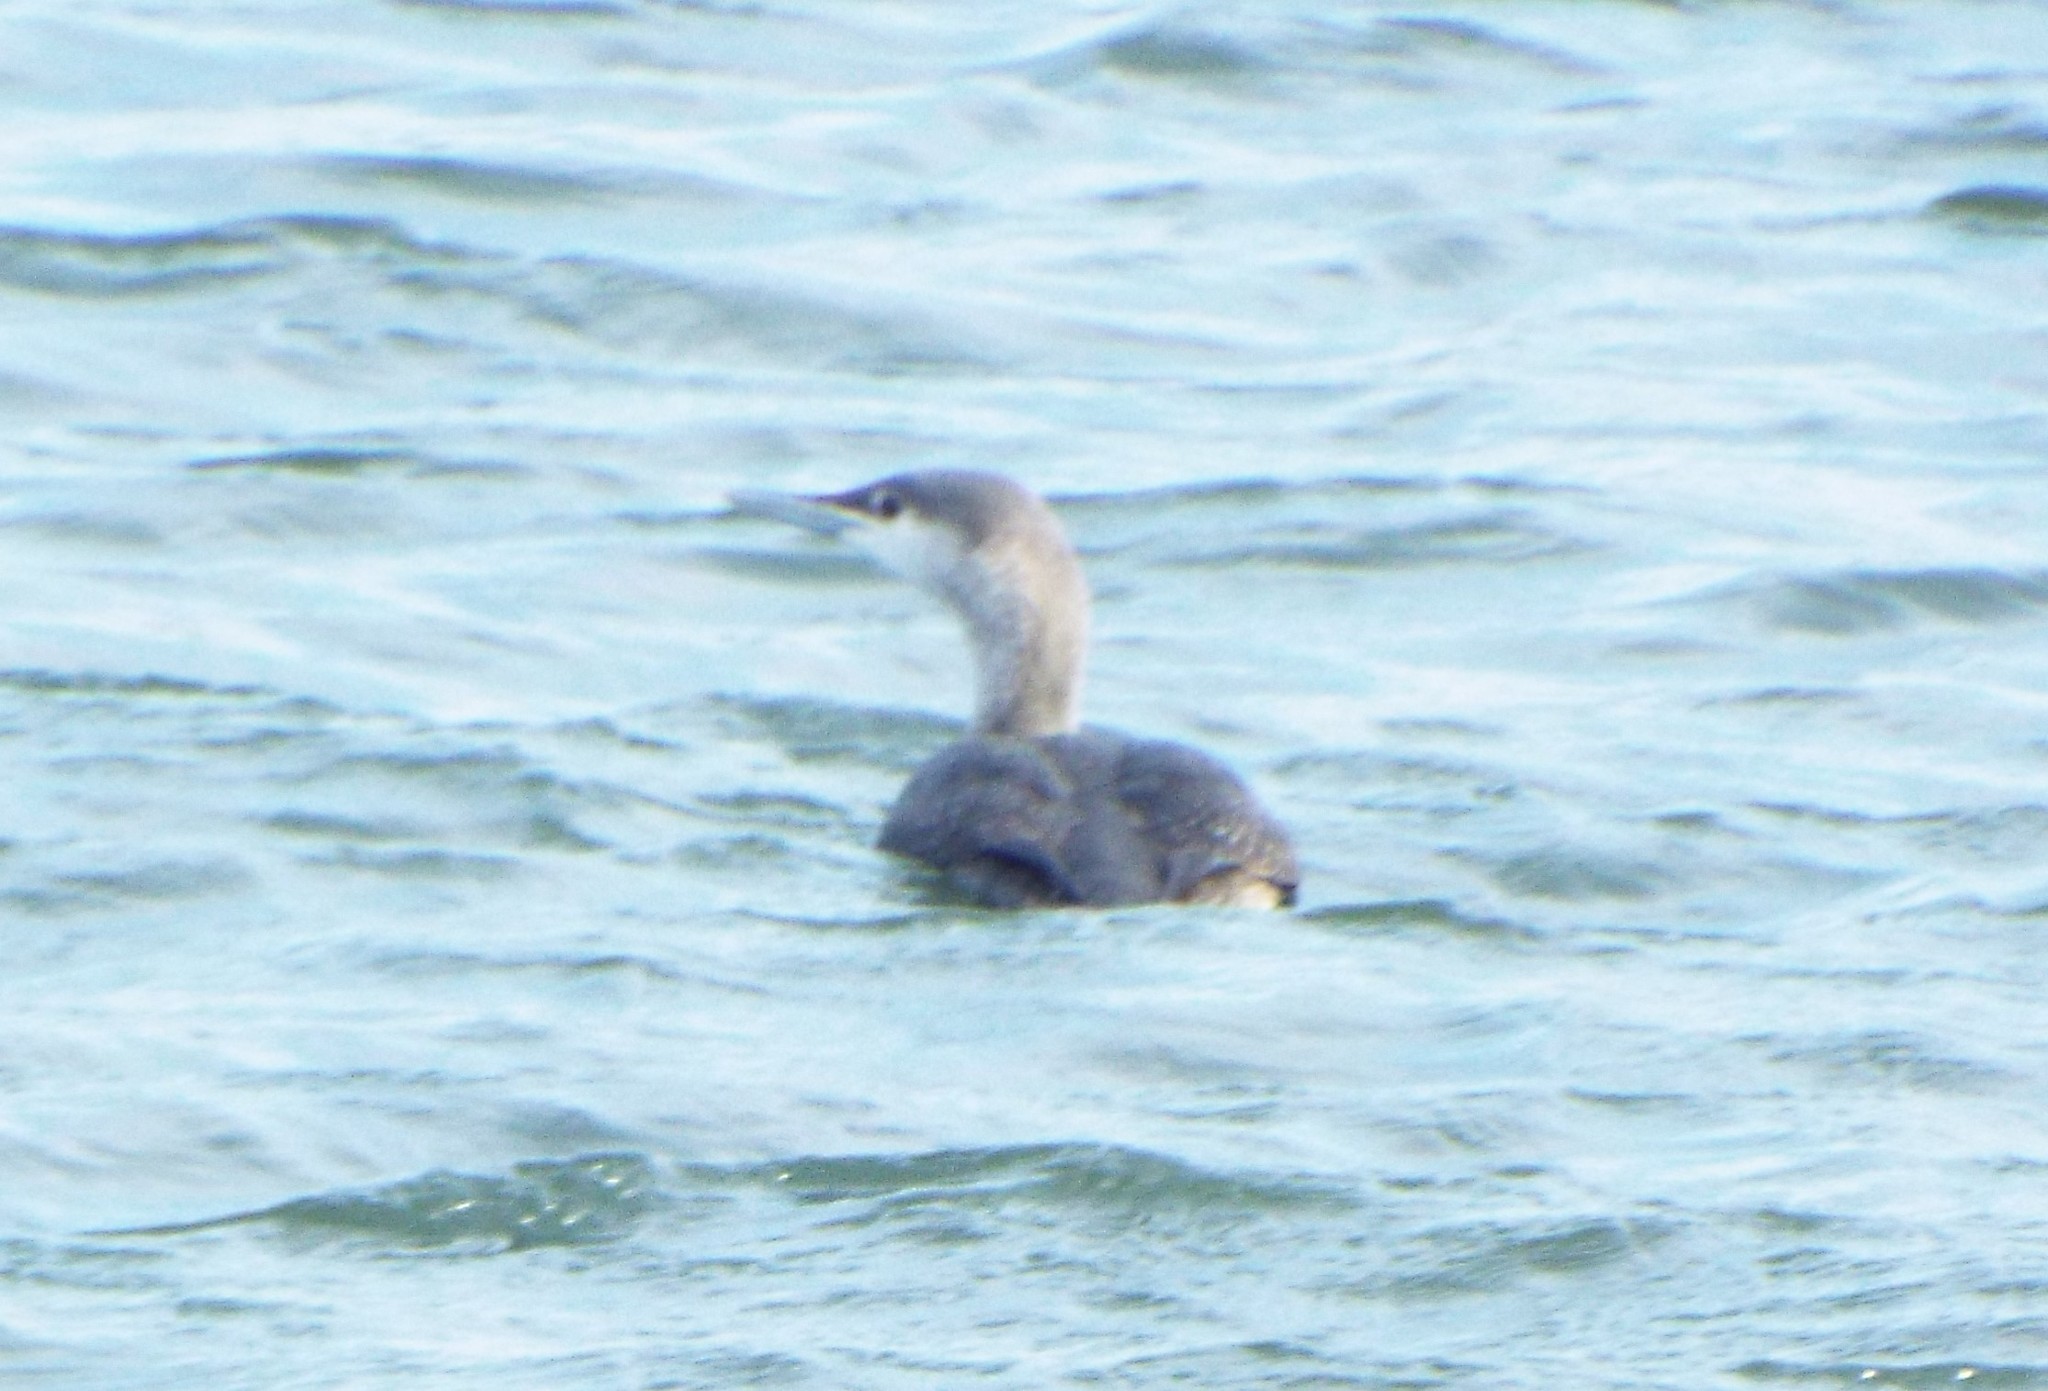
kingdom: Animalia
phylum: Chordata
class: Aves
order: Gaviiformes
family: Gaviidae
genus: Gavia
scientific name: Gavia stellata
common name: Red-throated loon
